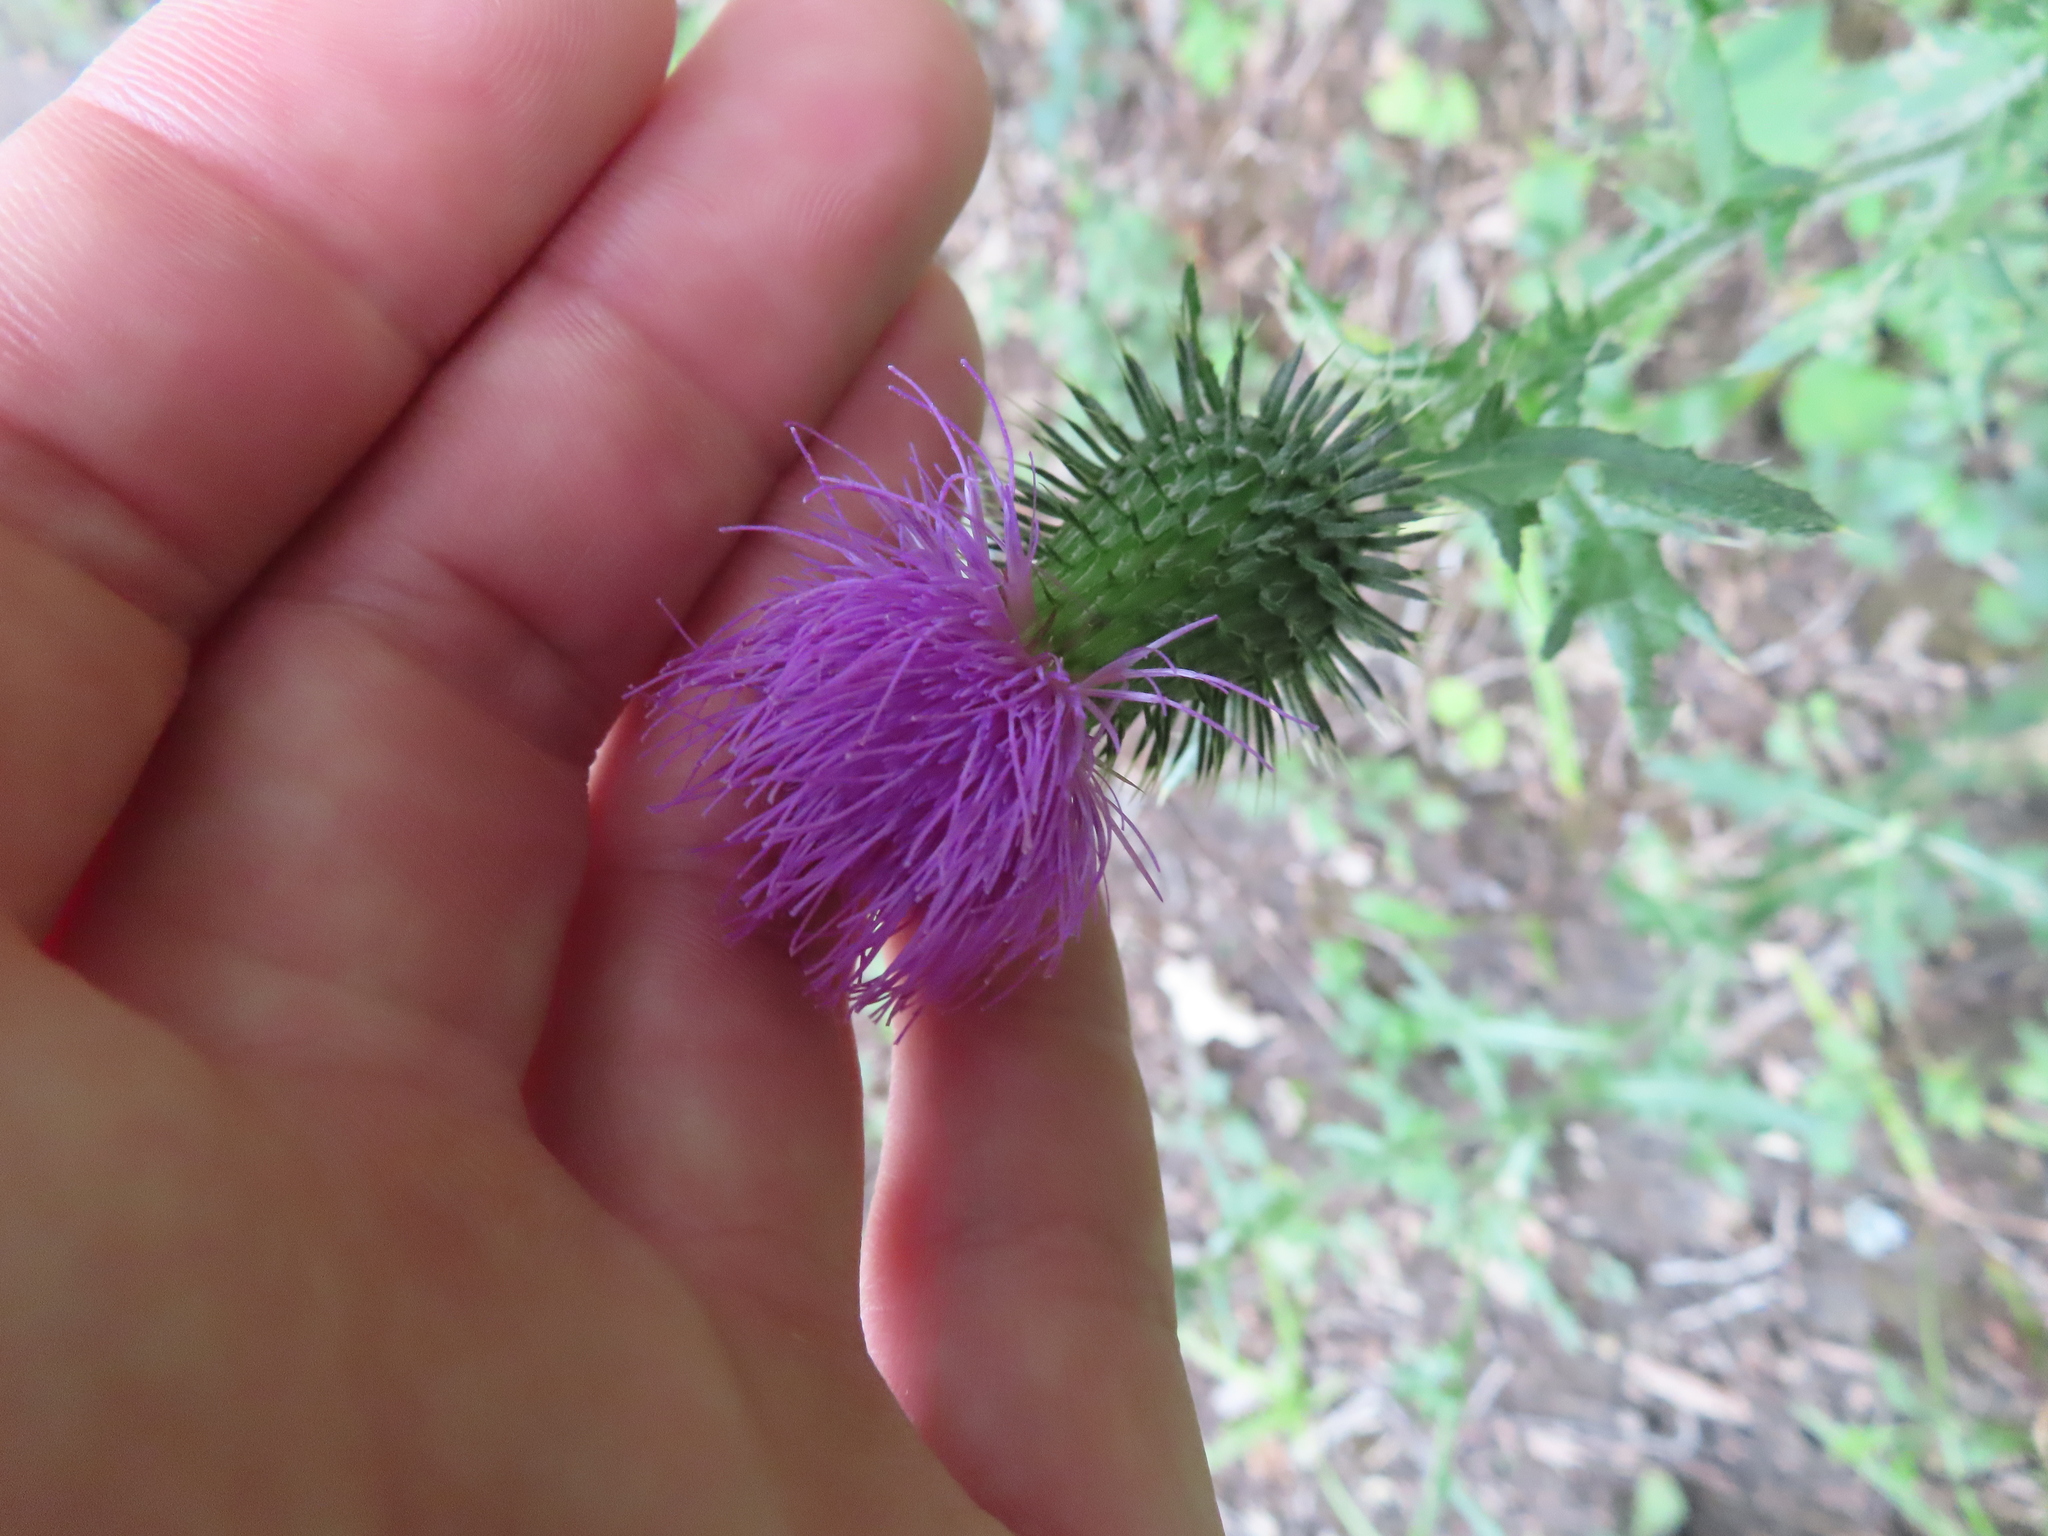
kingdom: Plantae
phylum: Tracheophyta
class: Magnoliopsida
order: Asterales
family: Asteraceae
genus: Cirsium
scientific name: Cirsium vulgare
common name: Bull thistle
